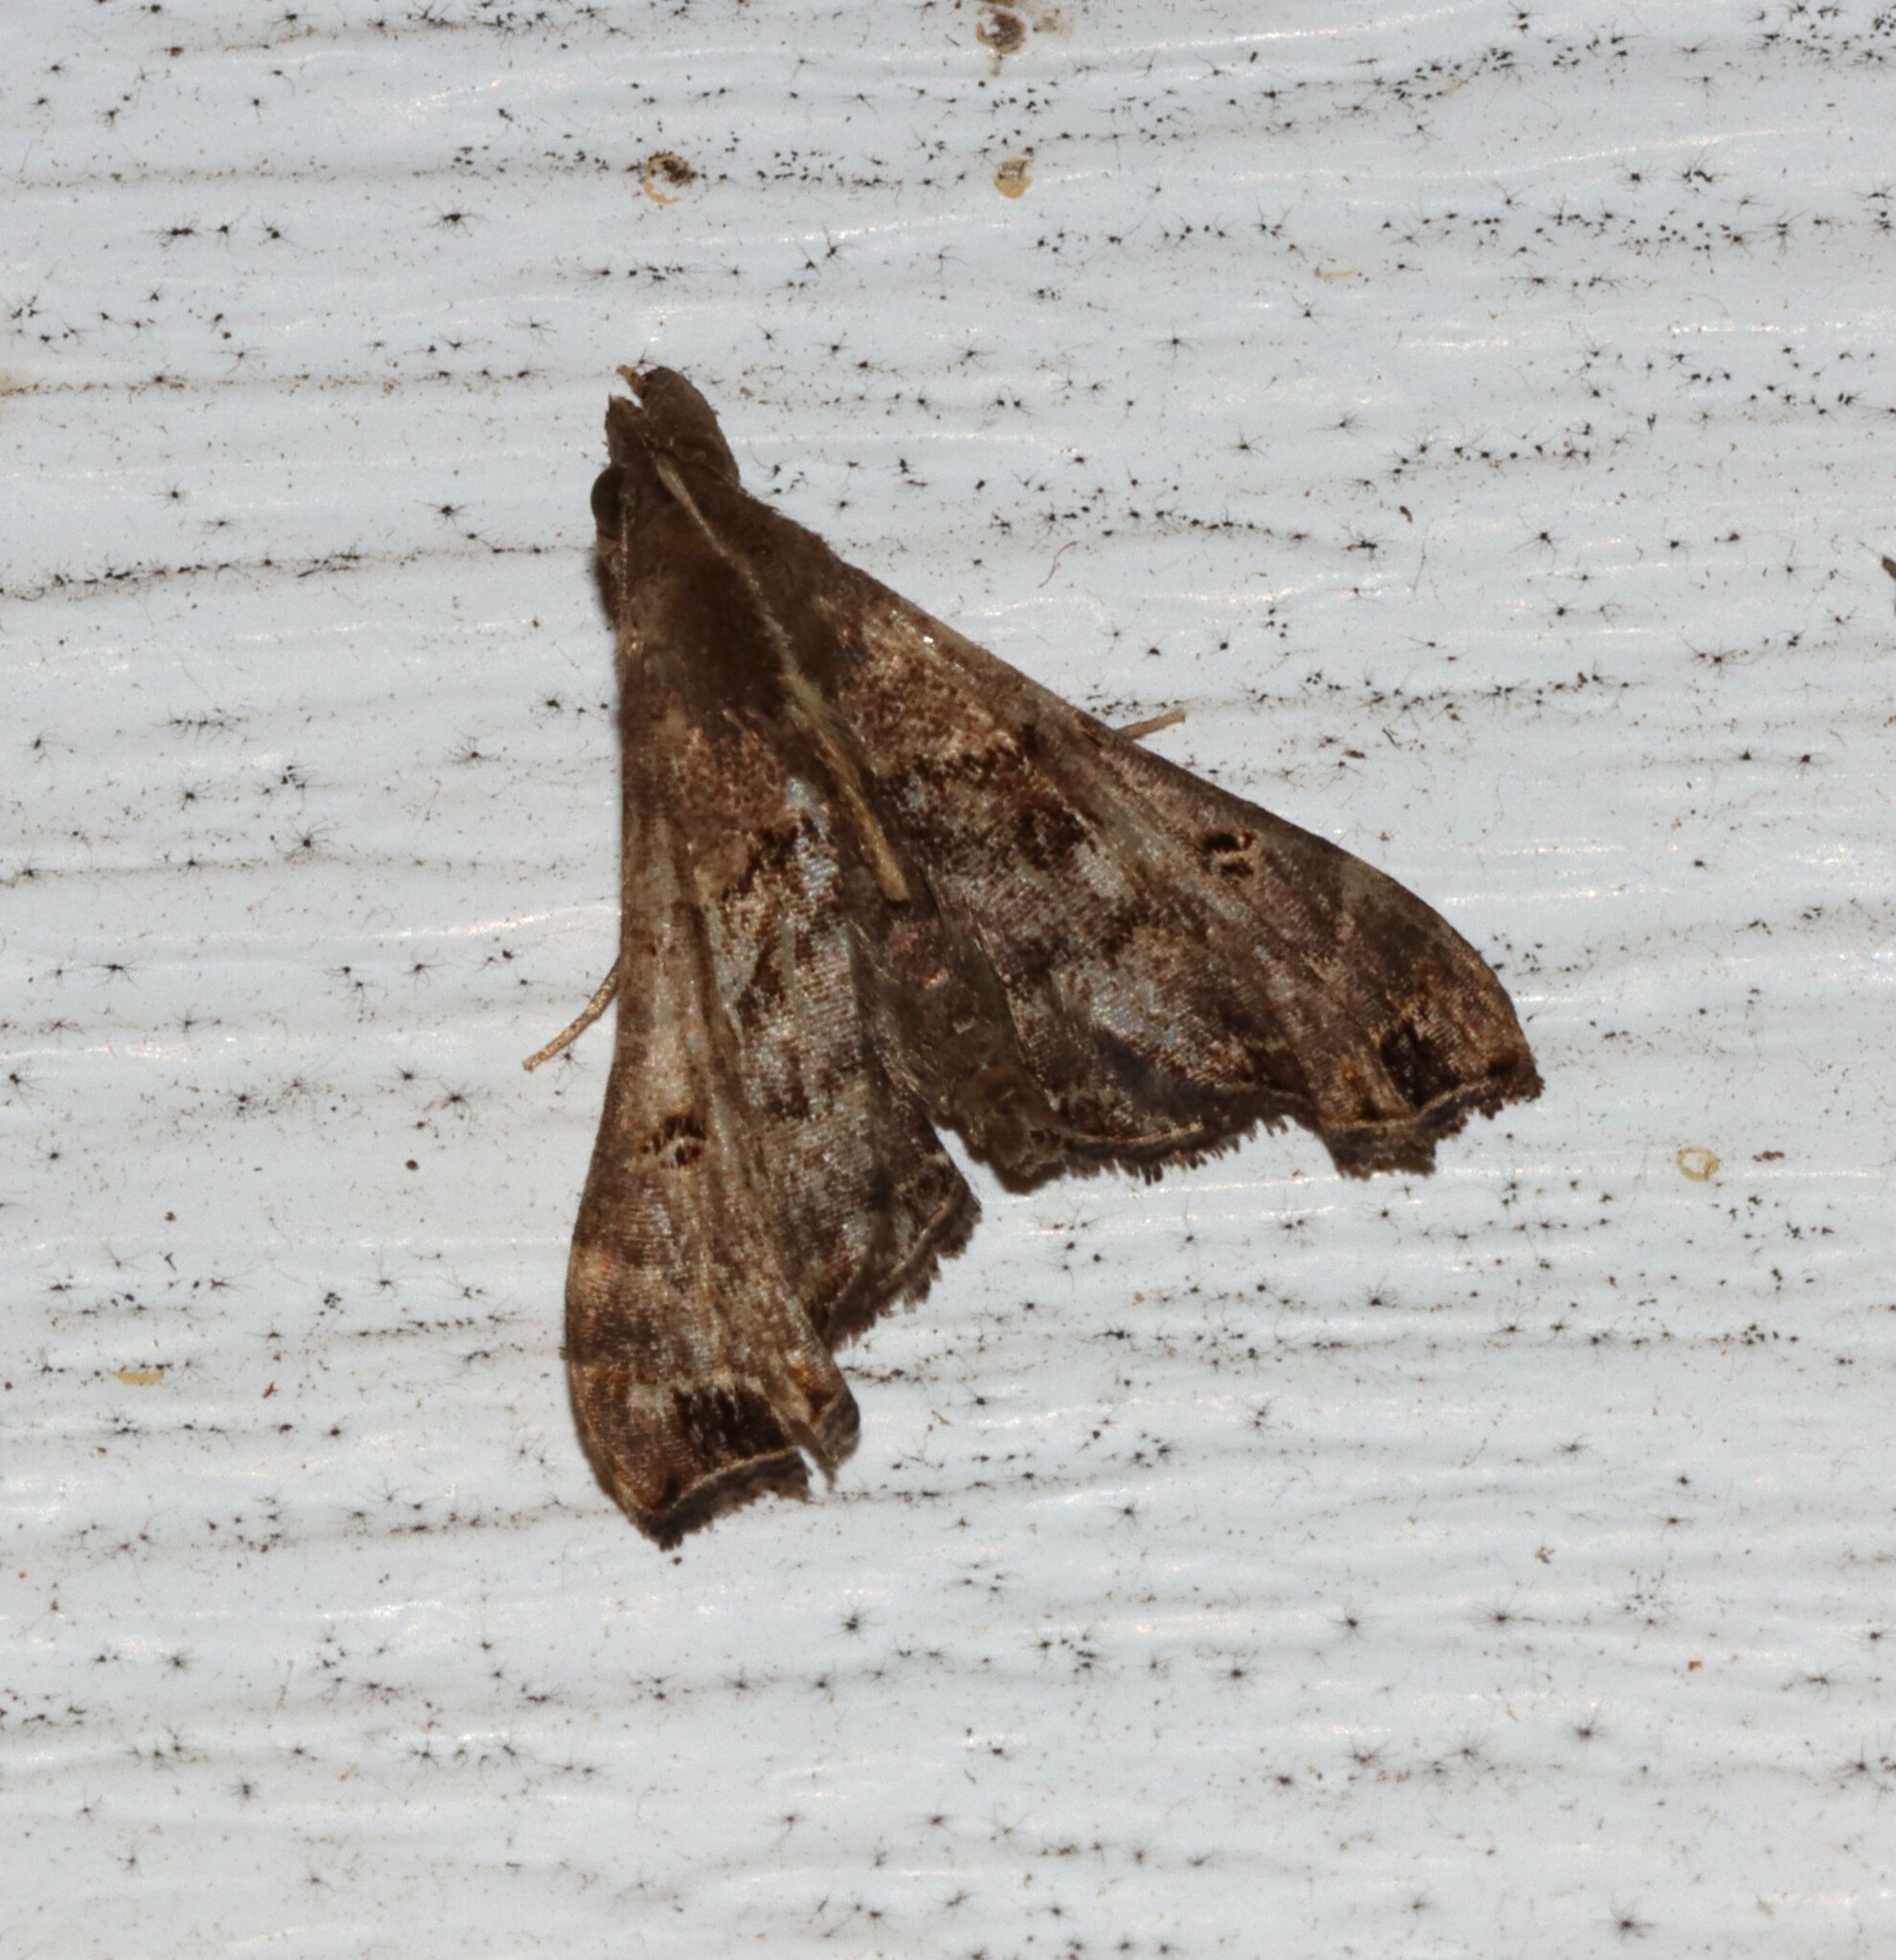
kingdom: Animalia
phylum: Arthropoda
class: Insecta
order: Lepidoptera
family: Erebidae
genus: Palthis
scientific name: Palthis asopialis
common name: Faint-spotted palthis moth
